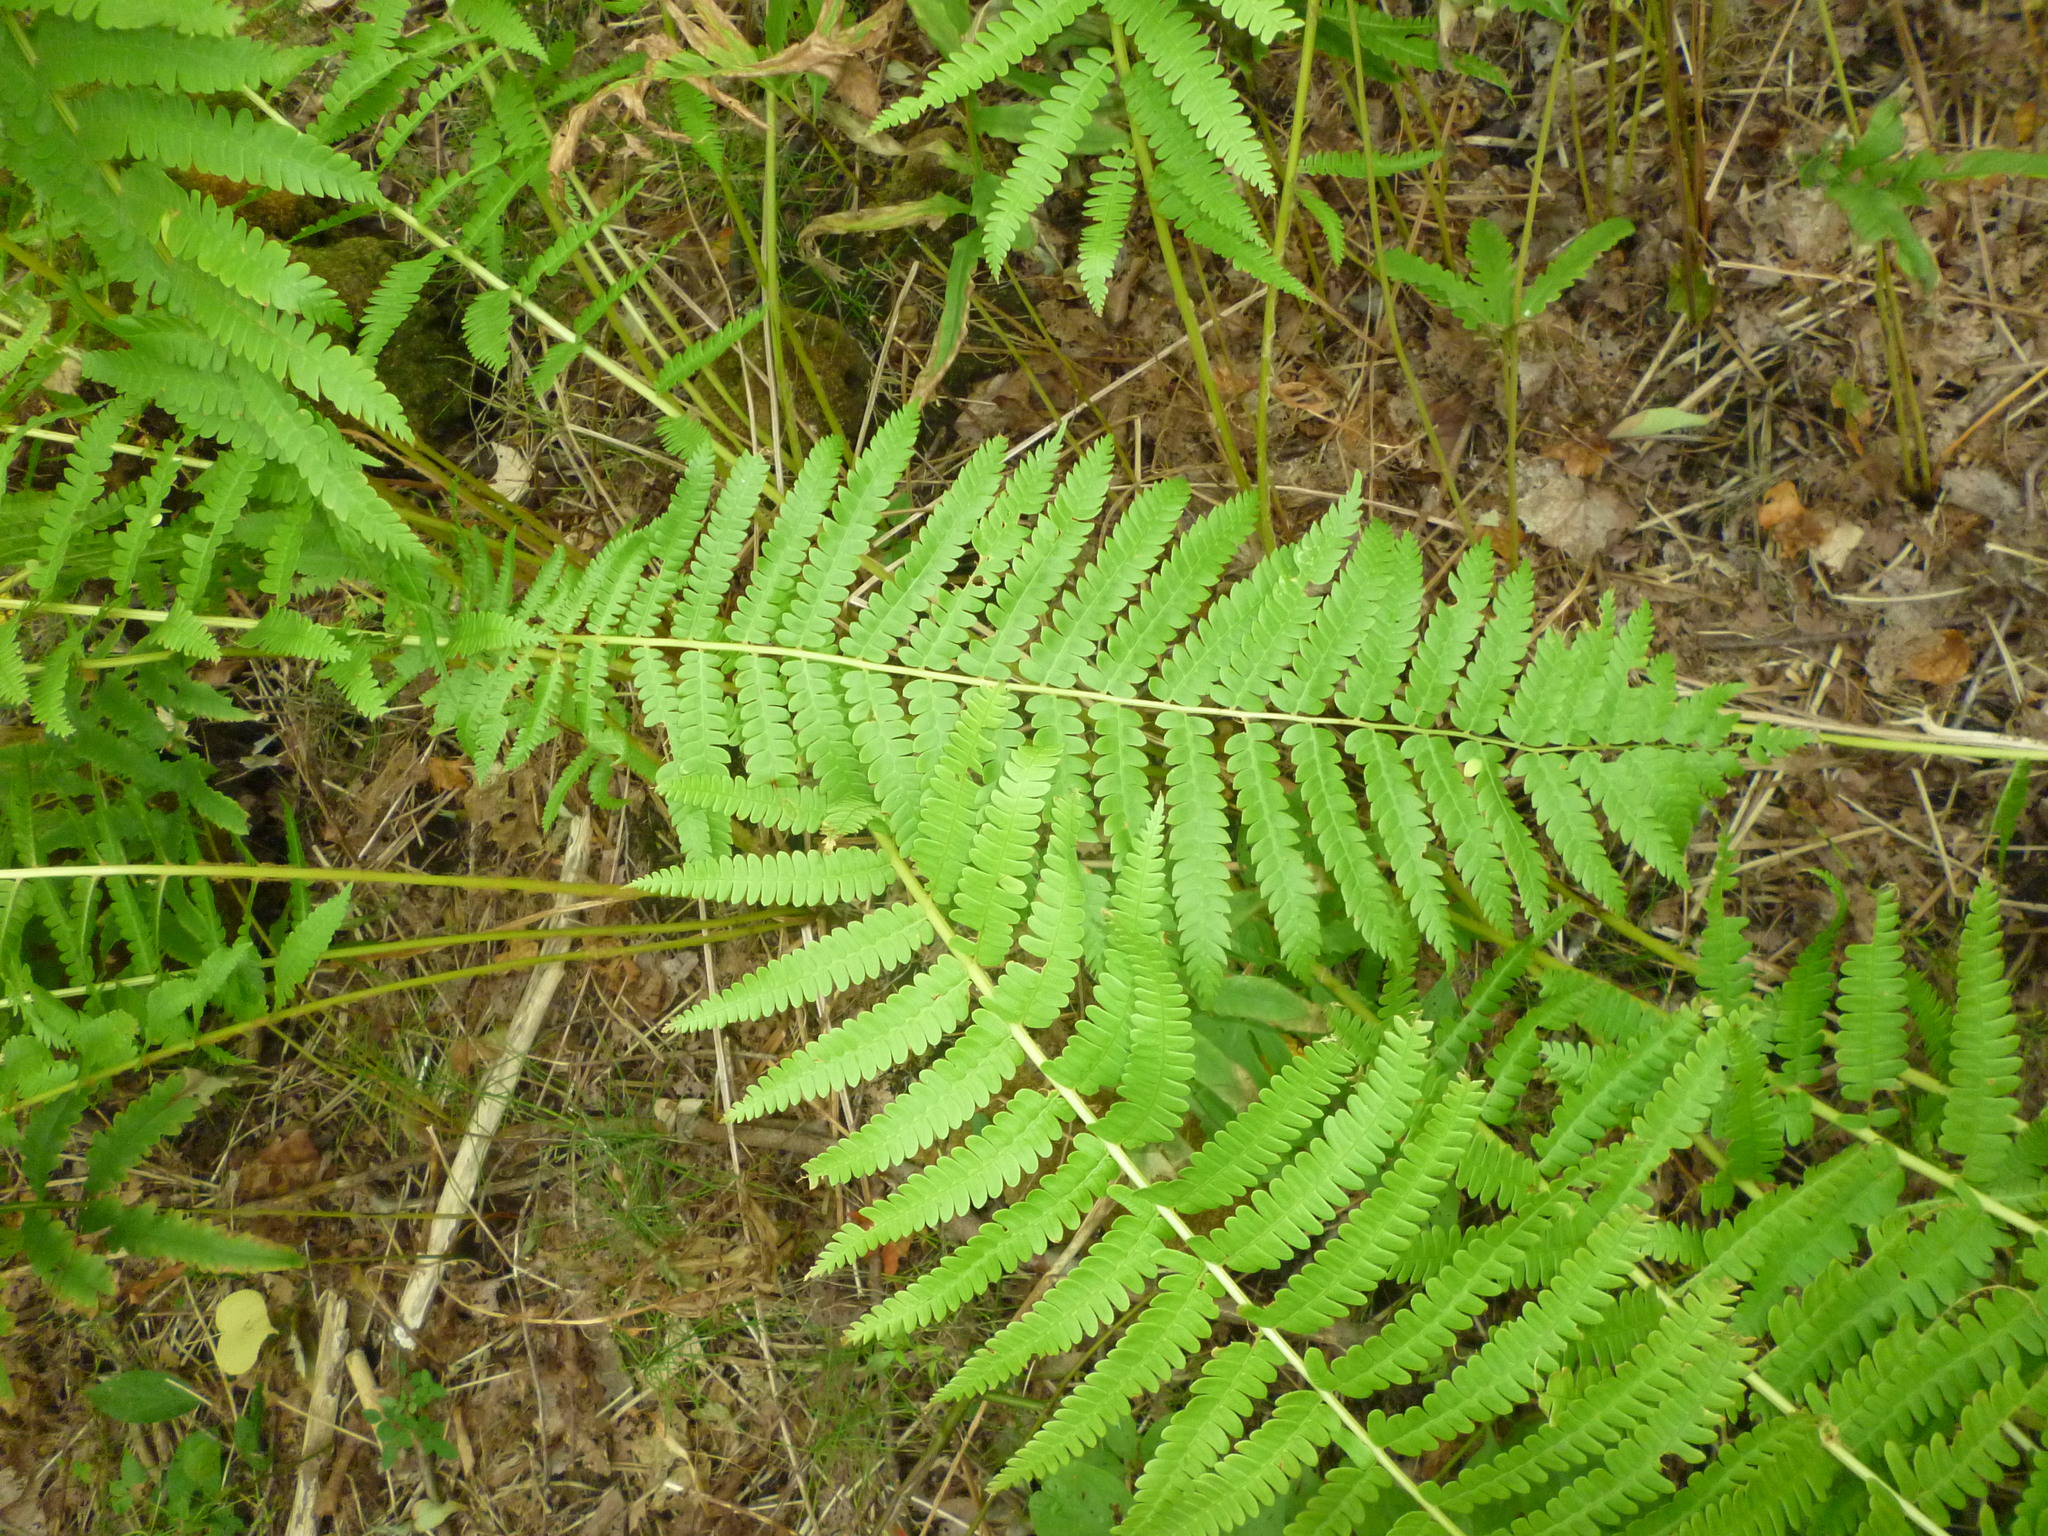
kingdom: Plantae
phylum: Tracheophyta
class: Polypodiopsida
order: Osmundales
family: Osmundaceae
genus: Osmundastrum
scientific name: Osmundastrum cinnamomeum
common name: Cinnamon fern
